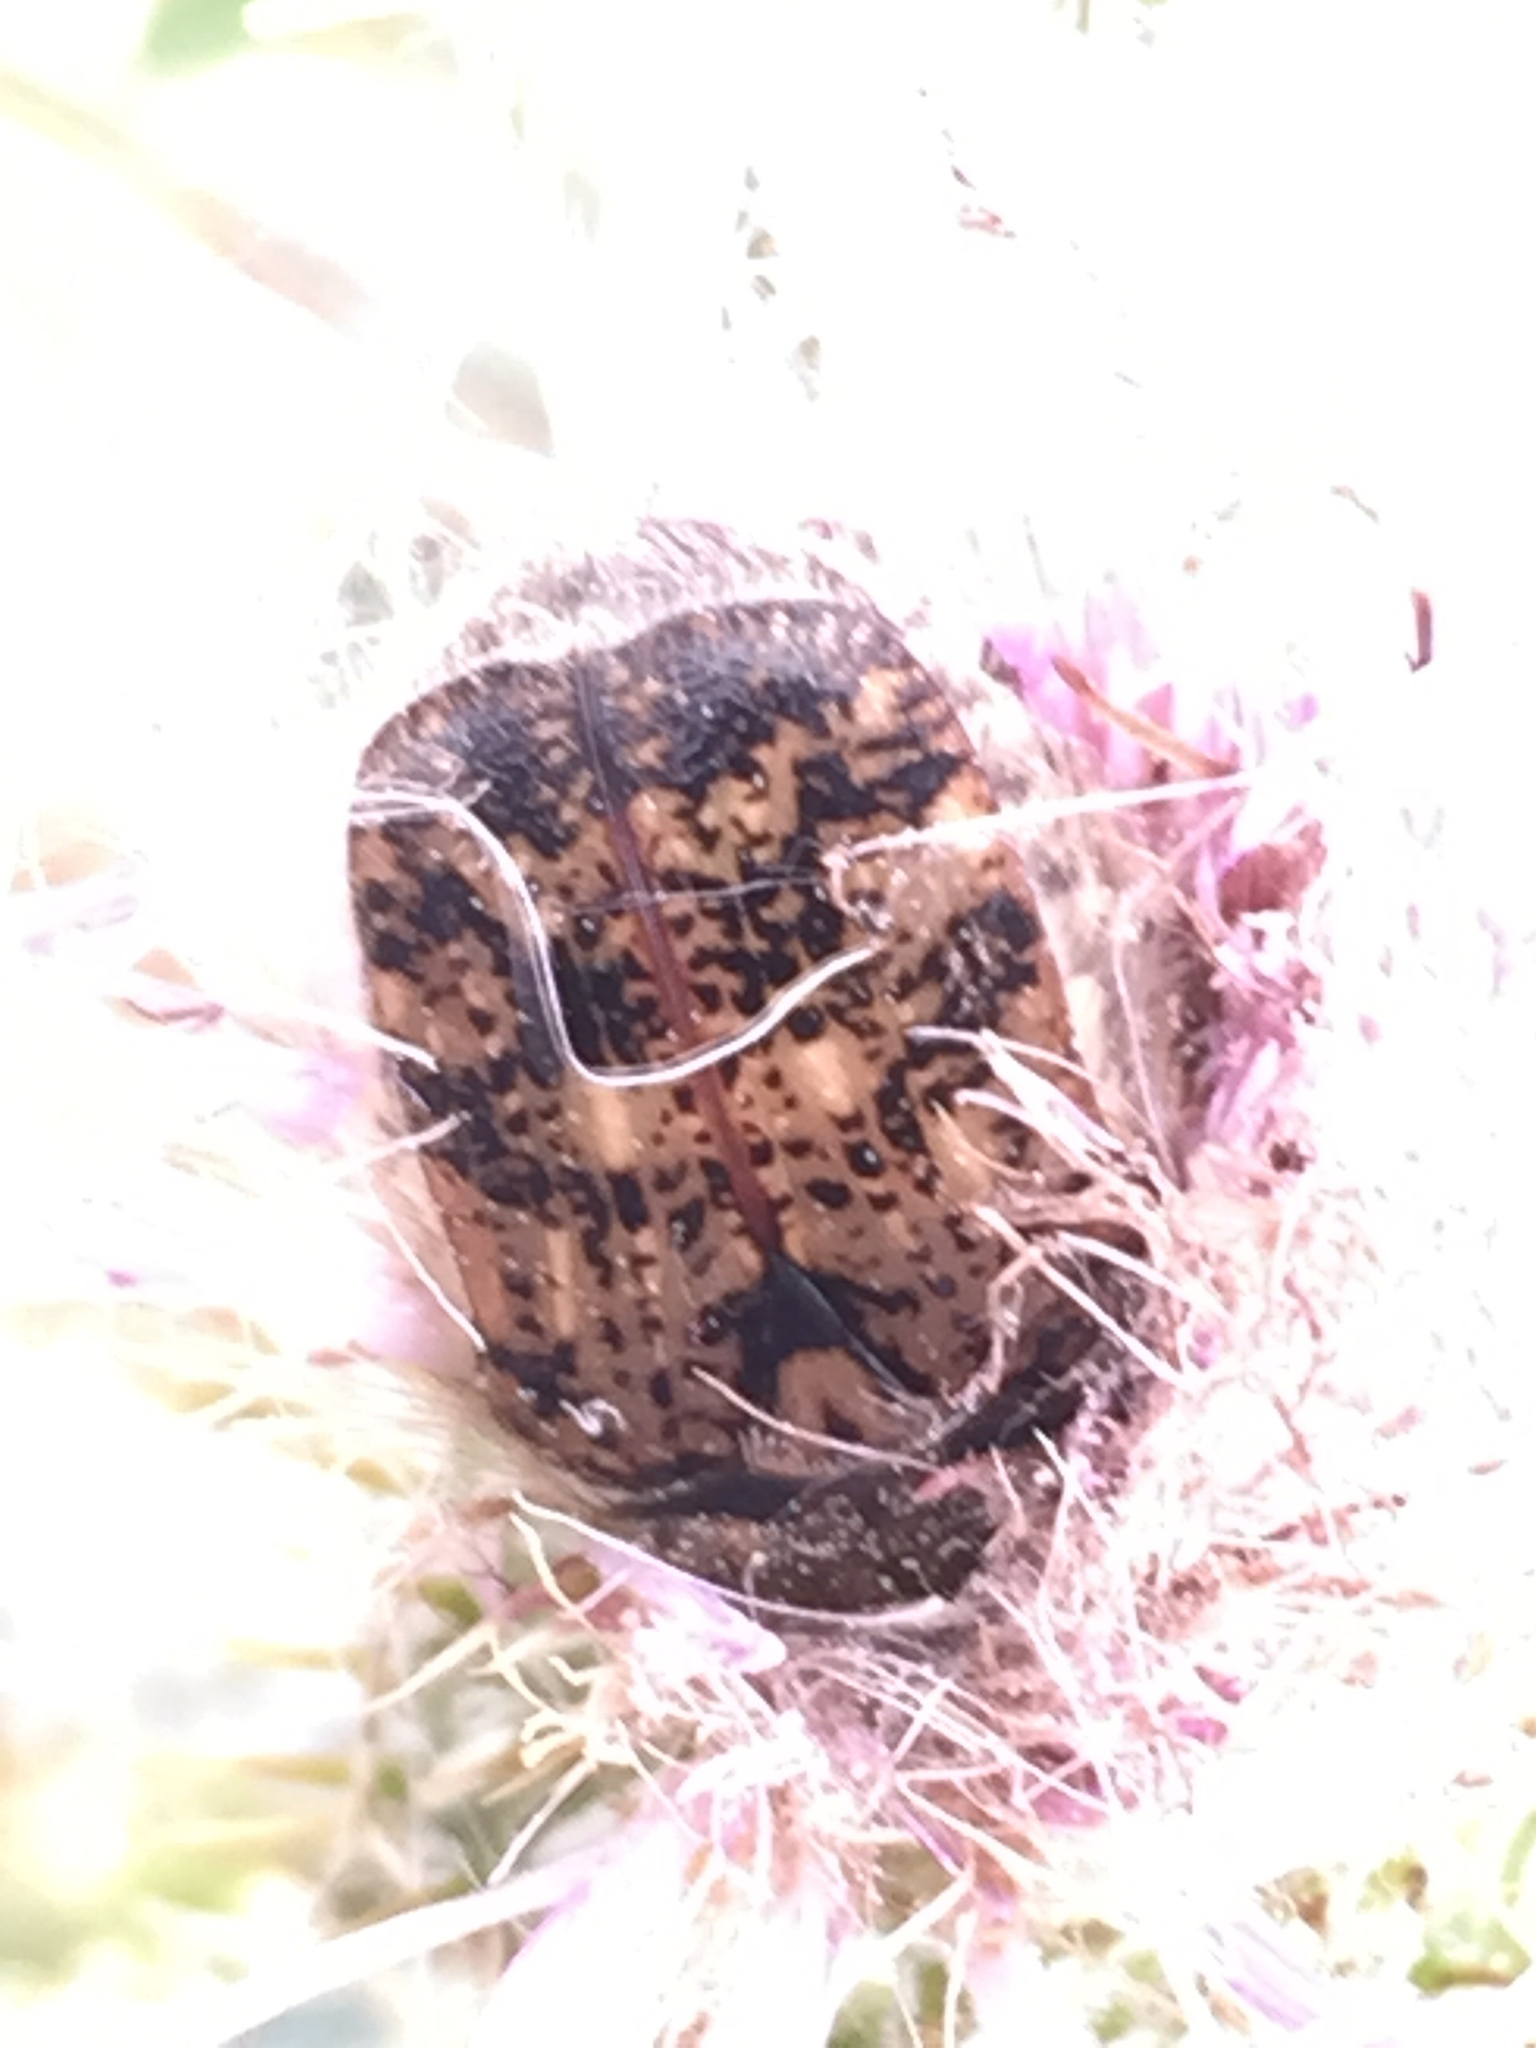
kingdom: Animalia
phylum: Arthropoda
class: Insecta
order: Coleoptera
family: Scarabaeidae
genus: Euphoria
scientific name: Euphoria inda
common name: Bumble flower beetle
